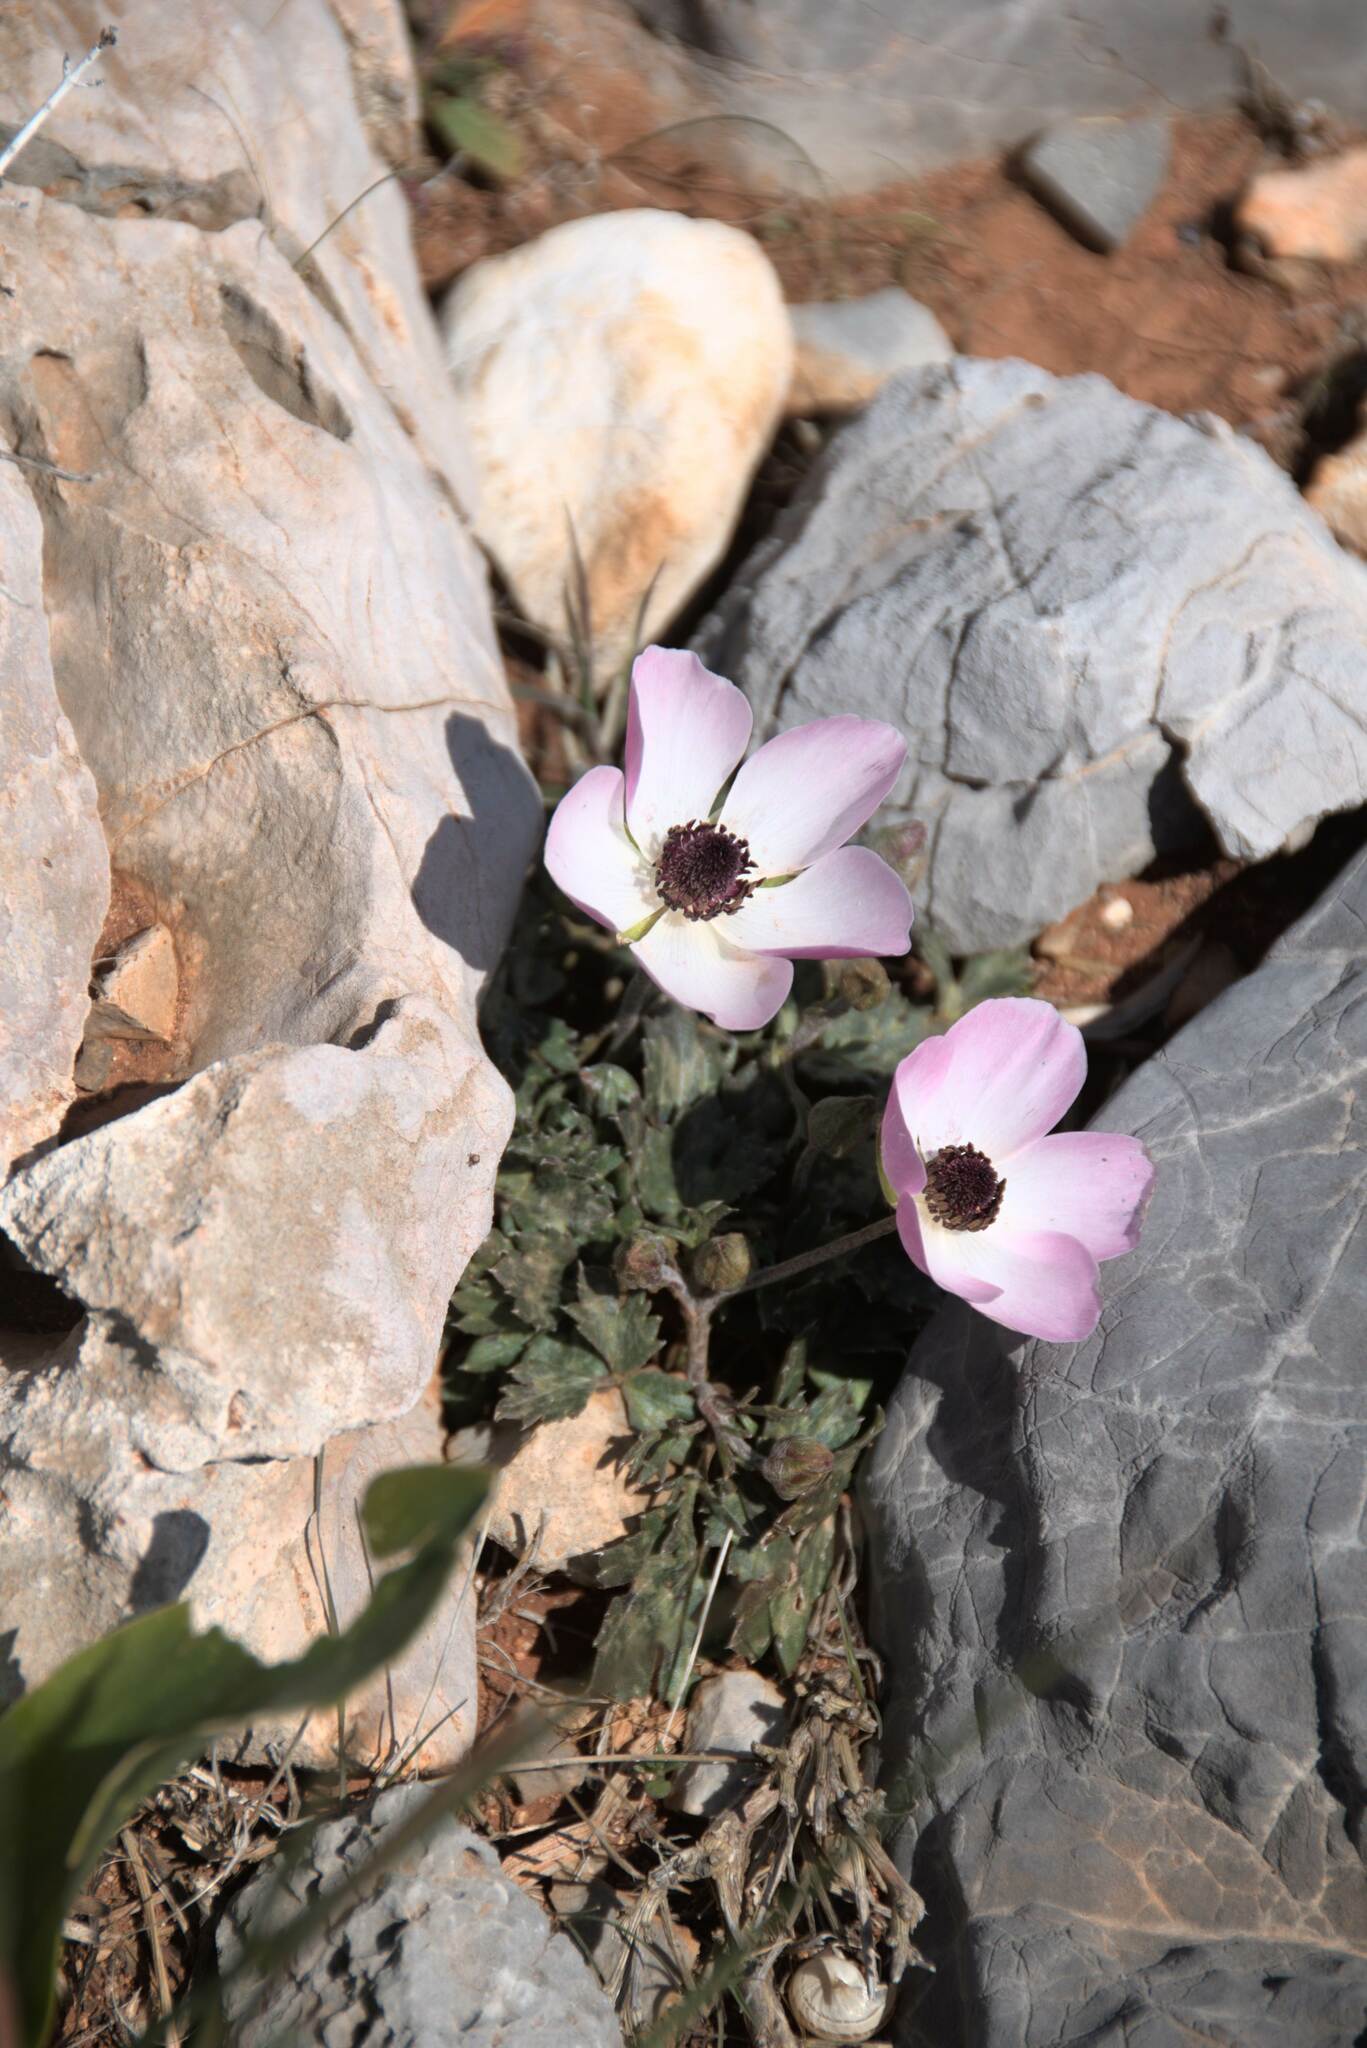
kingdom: Plantae
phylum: Tracheophyta
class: Magnoliopsida
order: Ranunculales
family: Ranunculaceae
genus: Ranunculus
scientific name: Ranunculus asiaticus
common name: Persian buttercup
